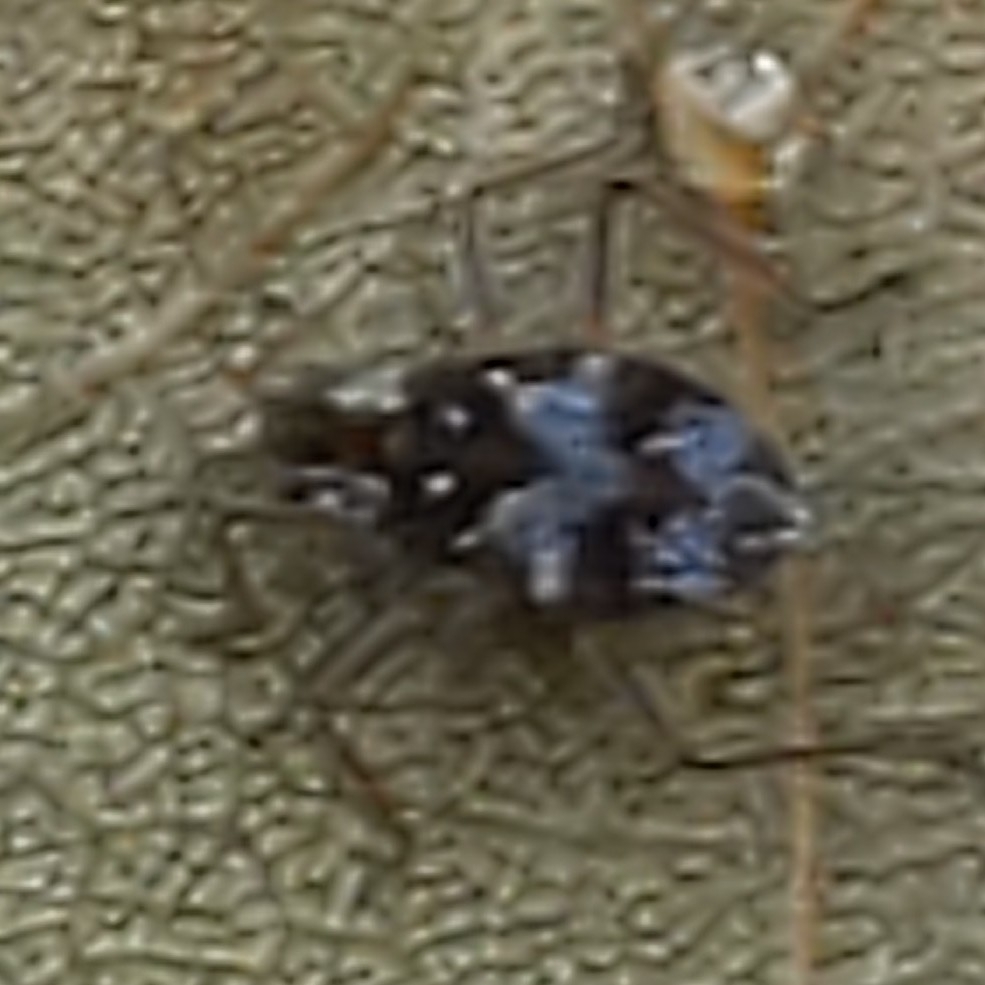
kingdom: Animalia
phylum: Arthropoda
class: Insecta
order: Hemiptera
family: Veliidae
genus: Microvelia
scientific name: Microvelia americana
